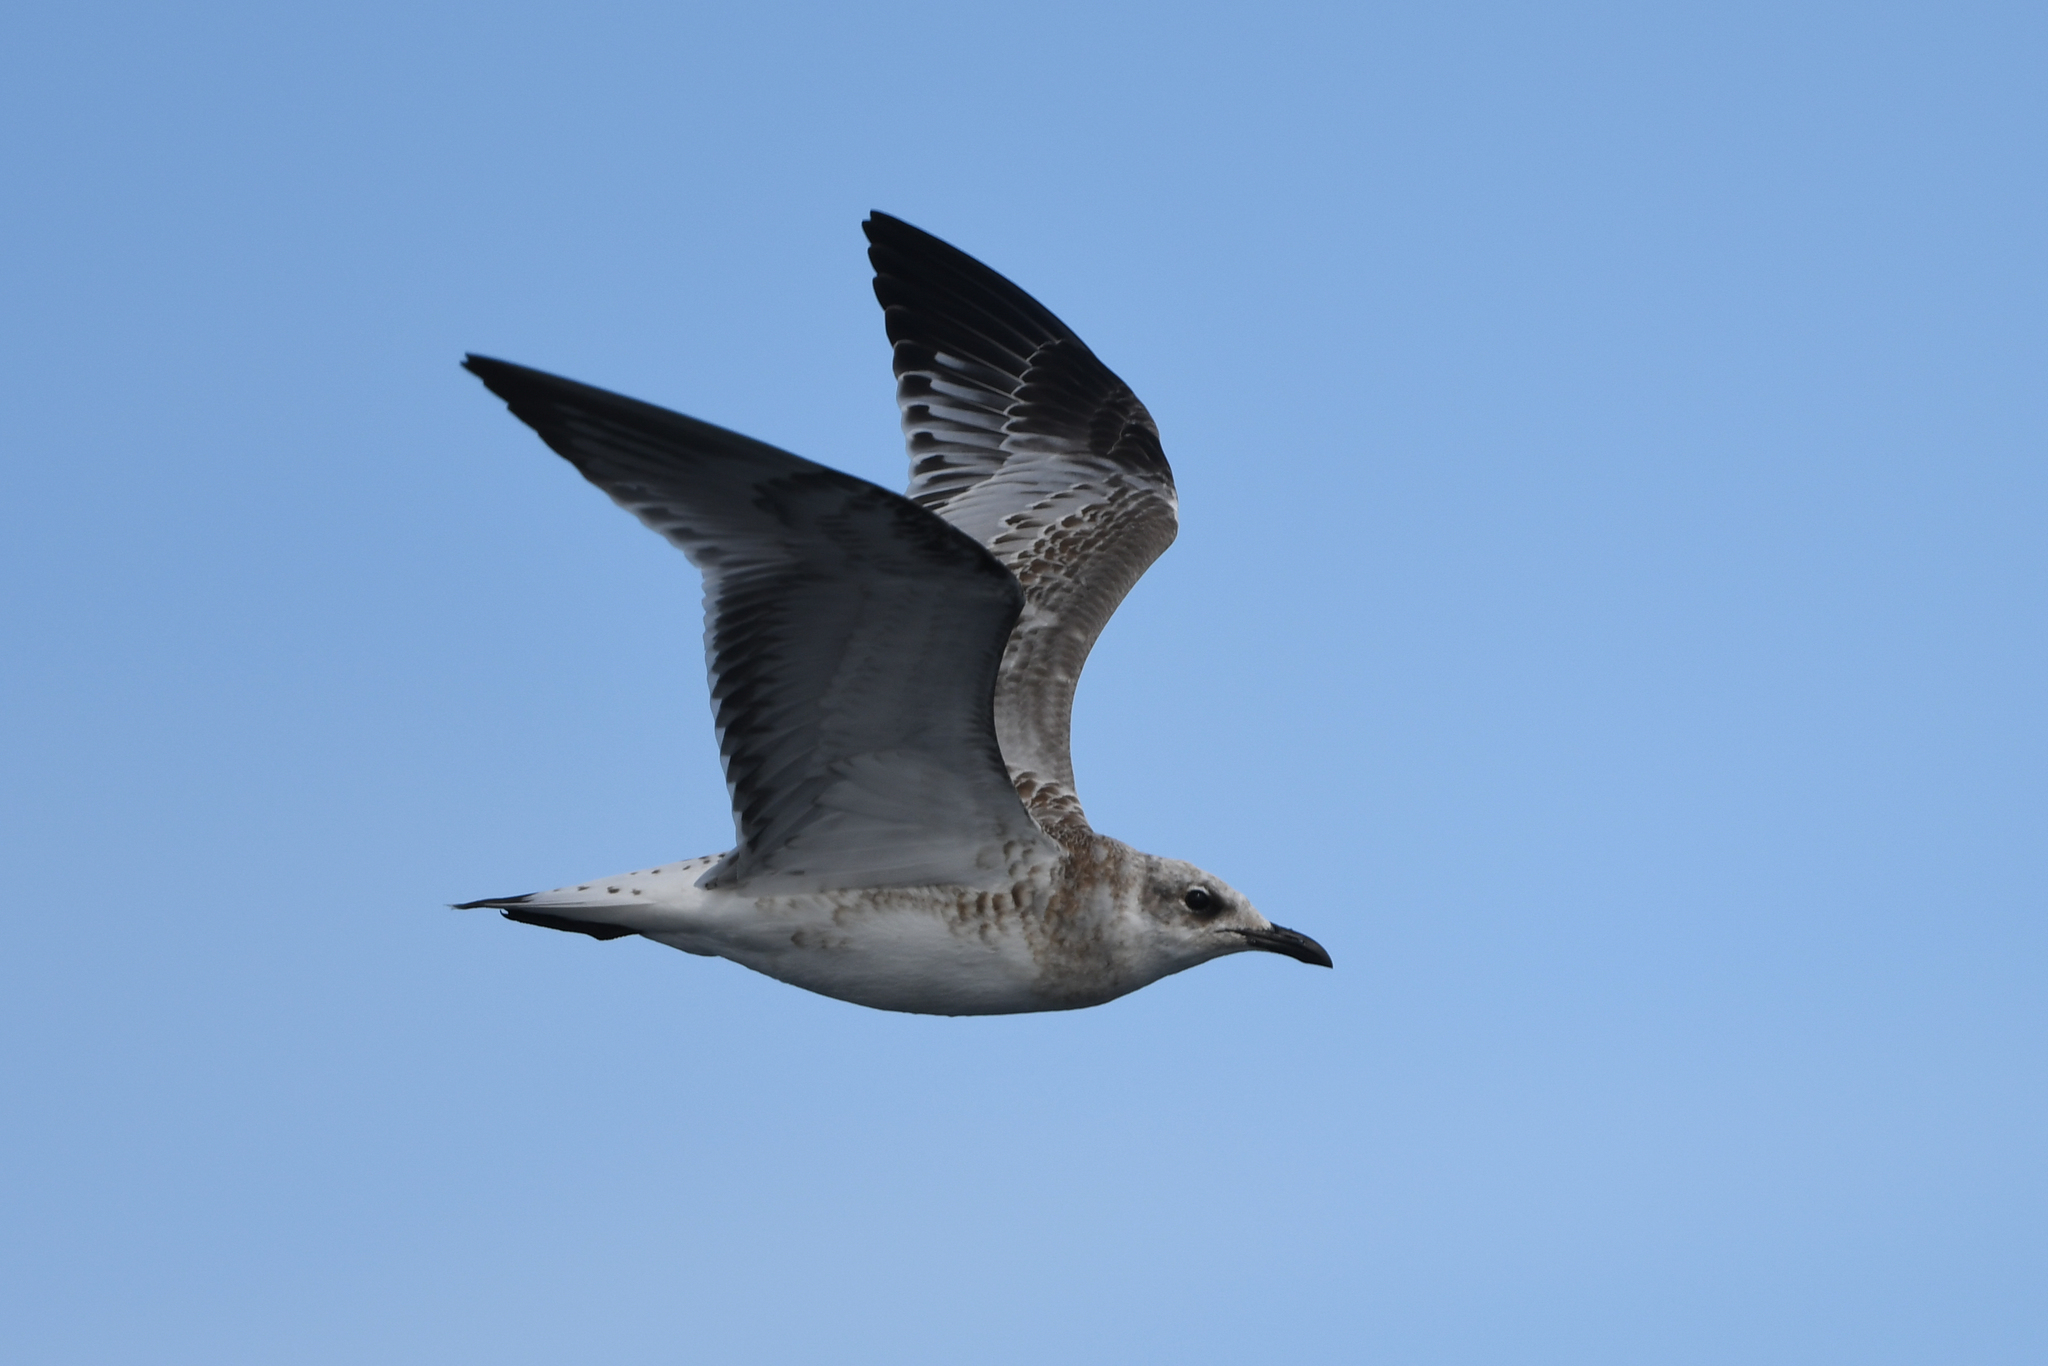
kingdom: Animalia
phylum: Chordata
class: Aves
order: Charadriiformes
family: Laridae
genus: Ichthyaetus
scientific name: Ichthyaetus melanocephalus
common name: Mediterranean gull
